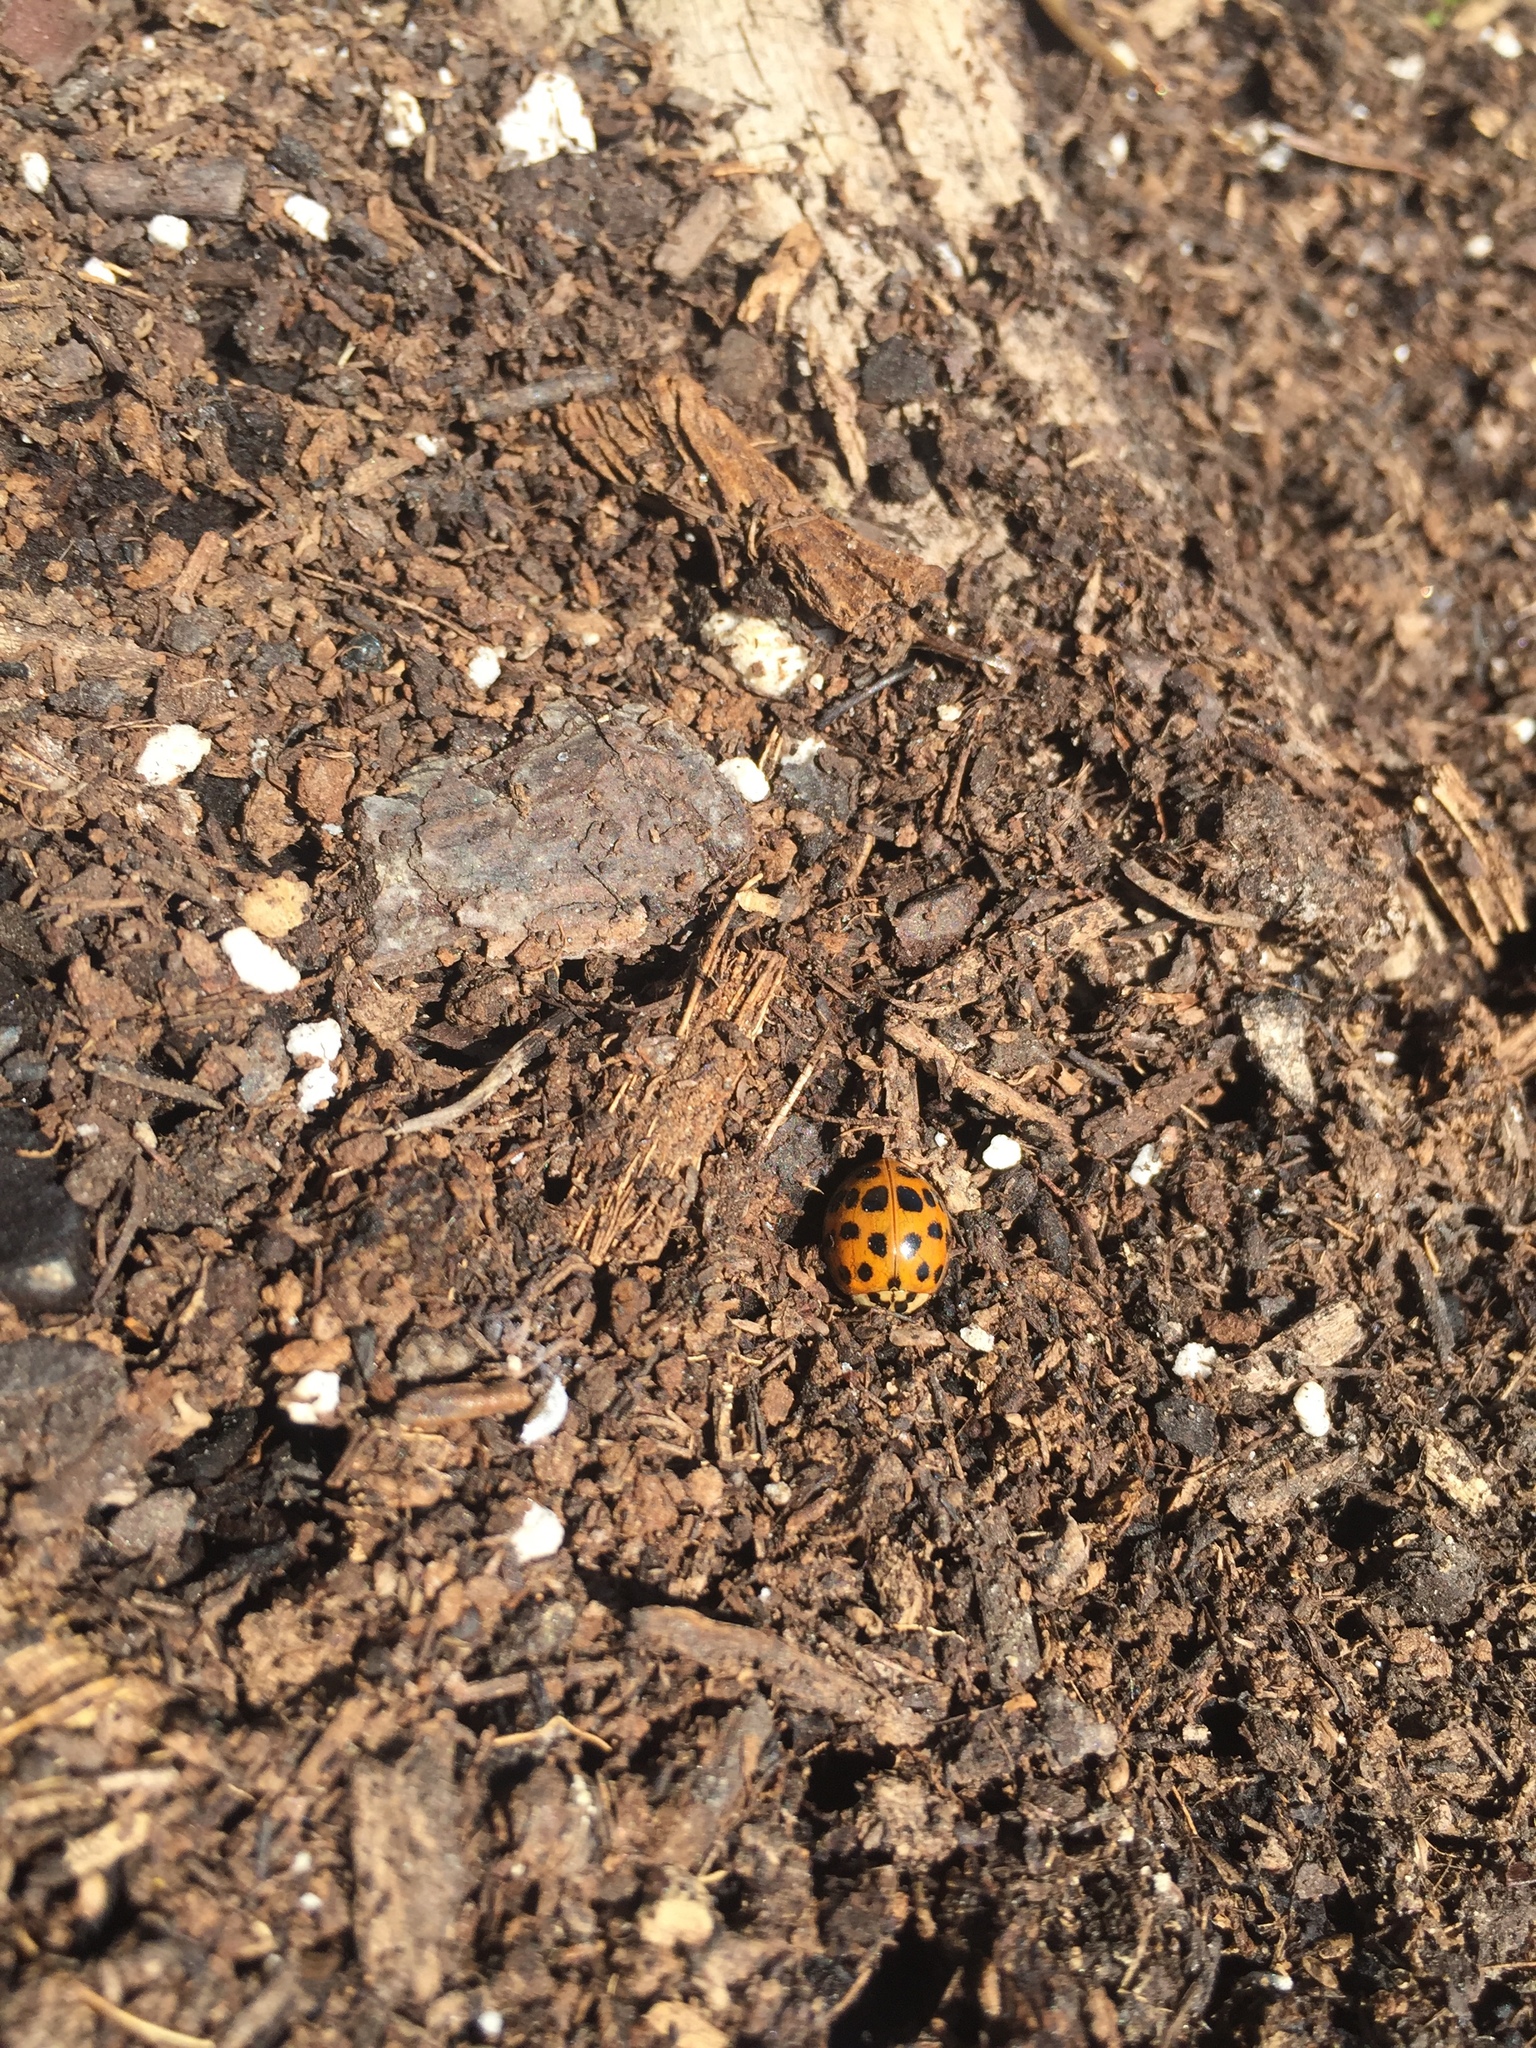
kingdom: Animalia
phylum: Arthropoda
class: Insecta
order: Coleoptera
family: Coccinellidae
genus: Harmonia
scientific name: Harmonia axyridis
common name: Harlequin ladybird
